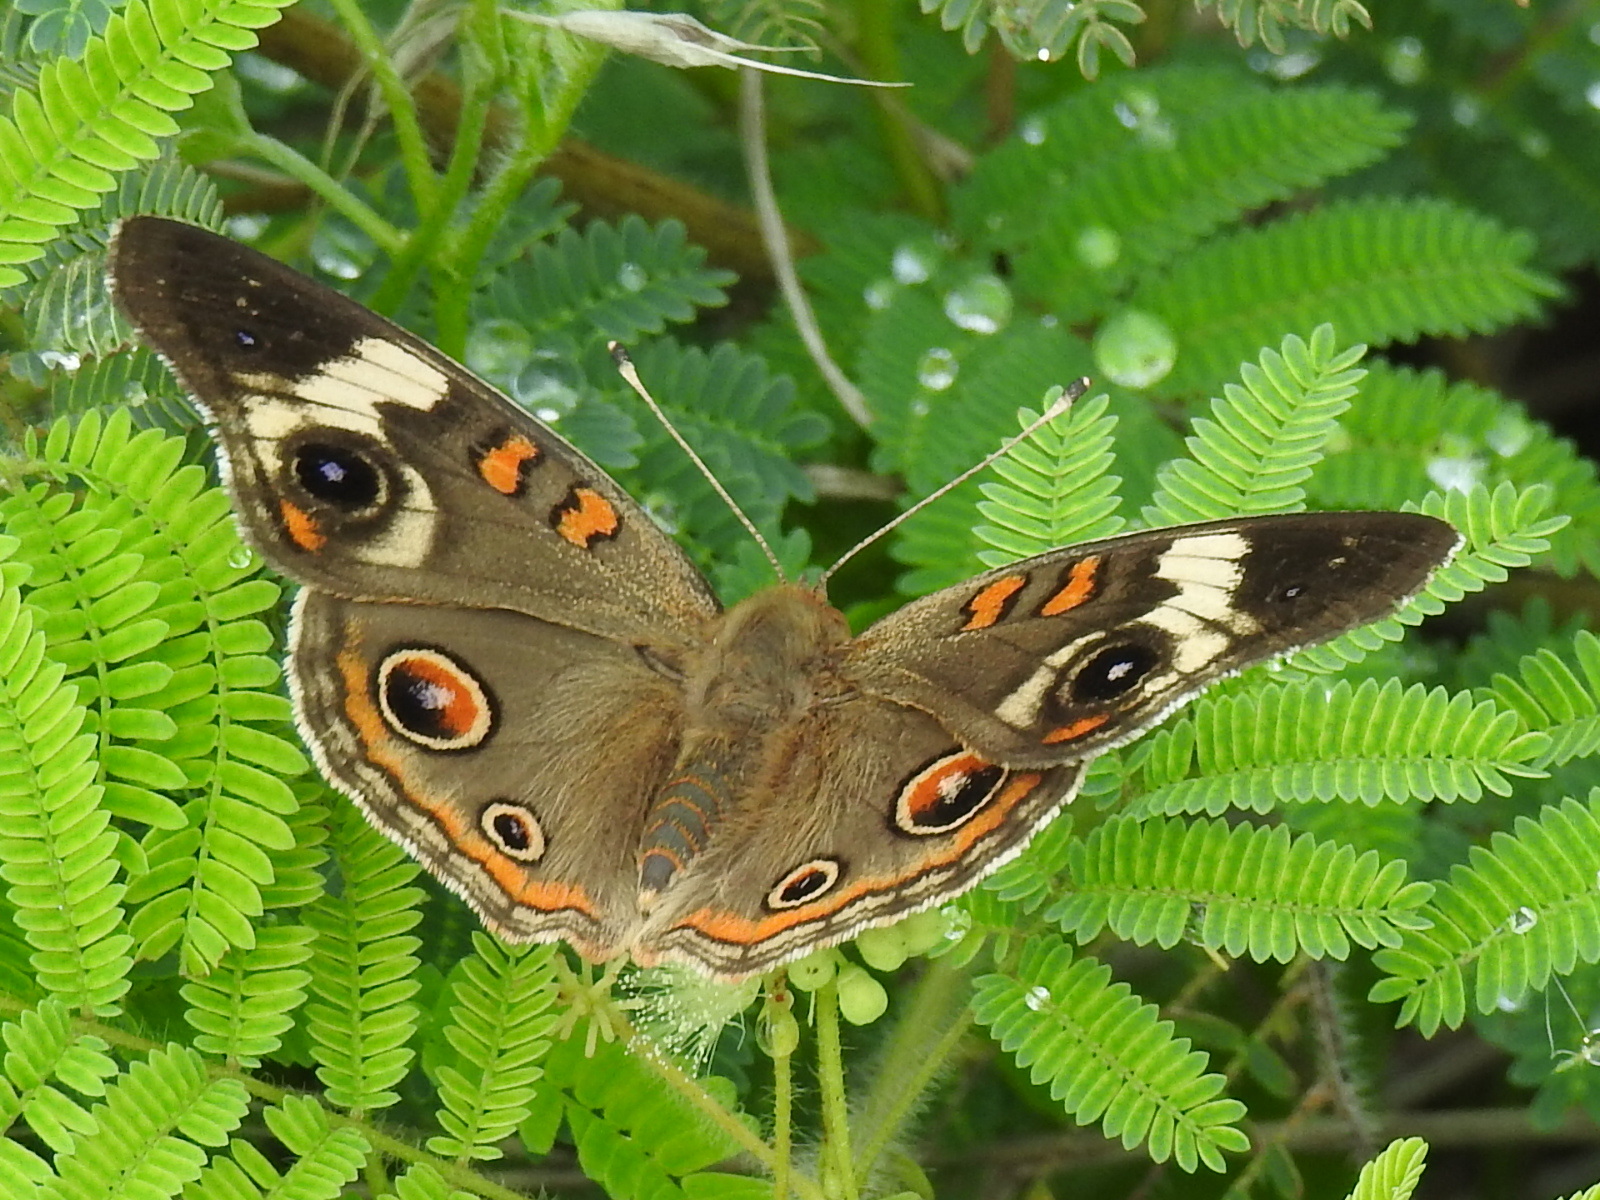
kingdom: Animalia
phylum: Arthropoda
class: Insecta
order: Lepidoptera
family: Nymphalidae
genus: Junonia
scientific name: Junonia coenia
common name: Common buckeye
